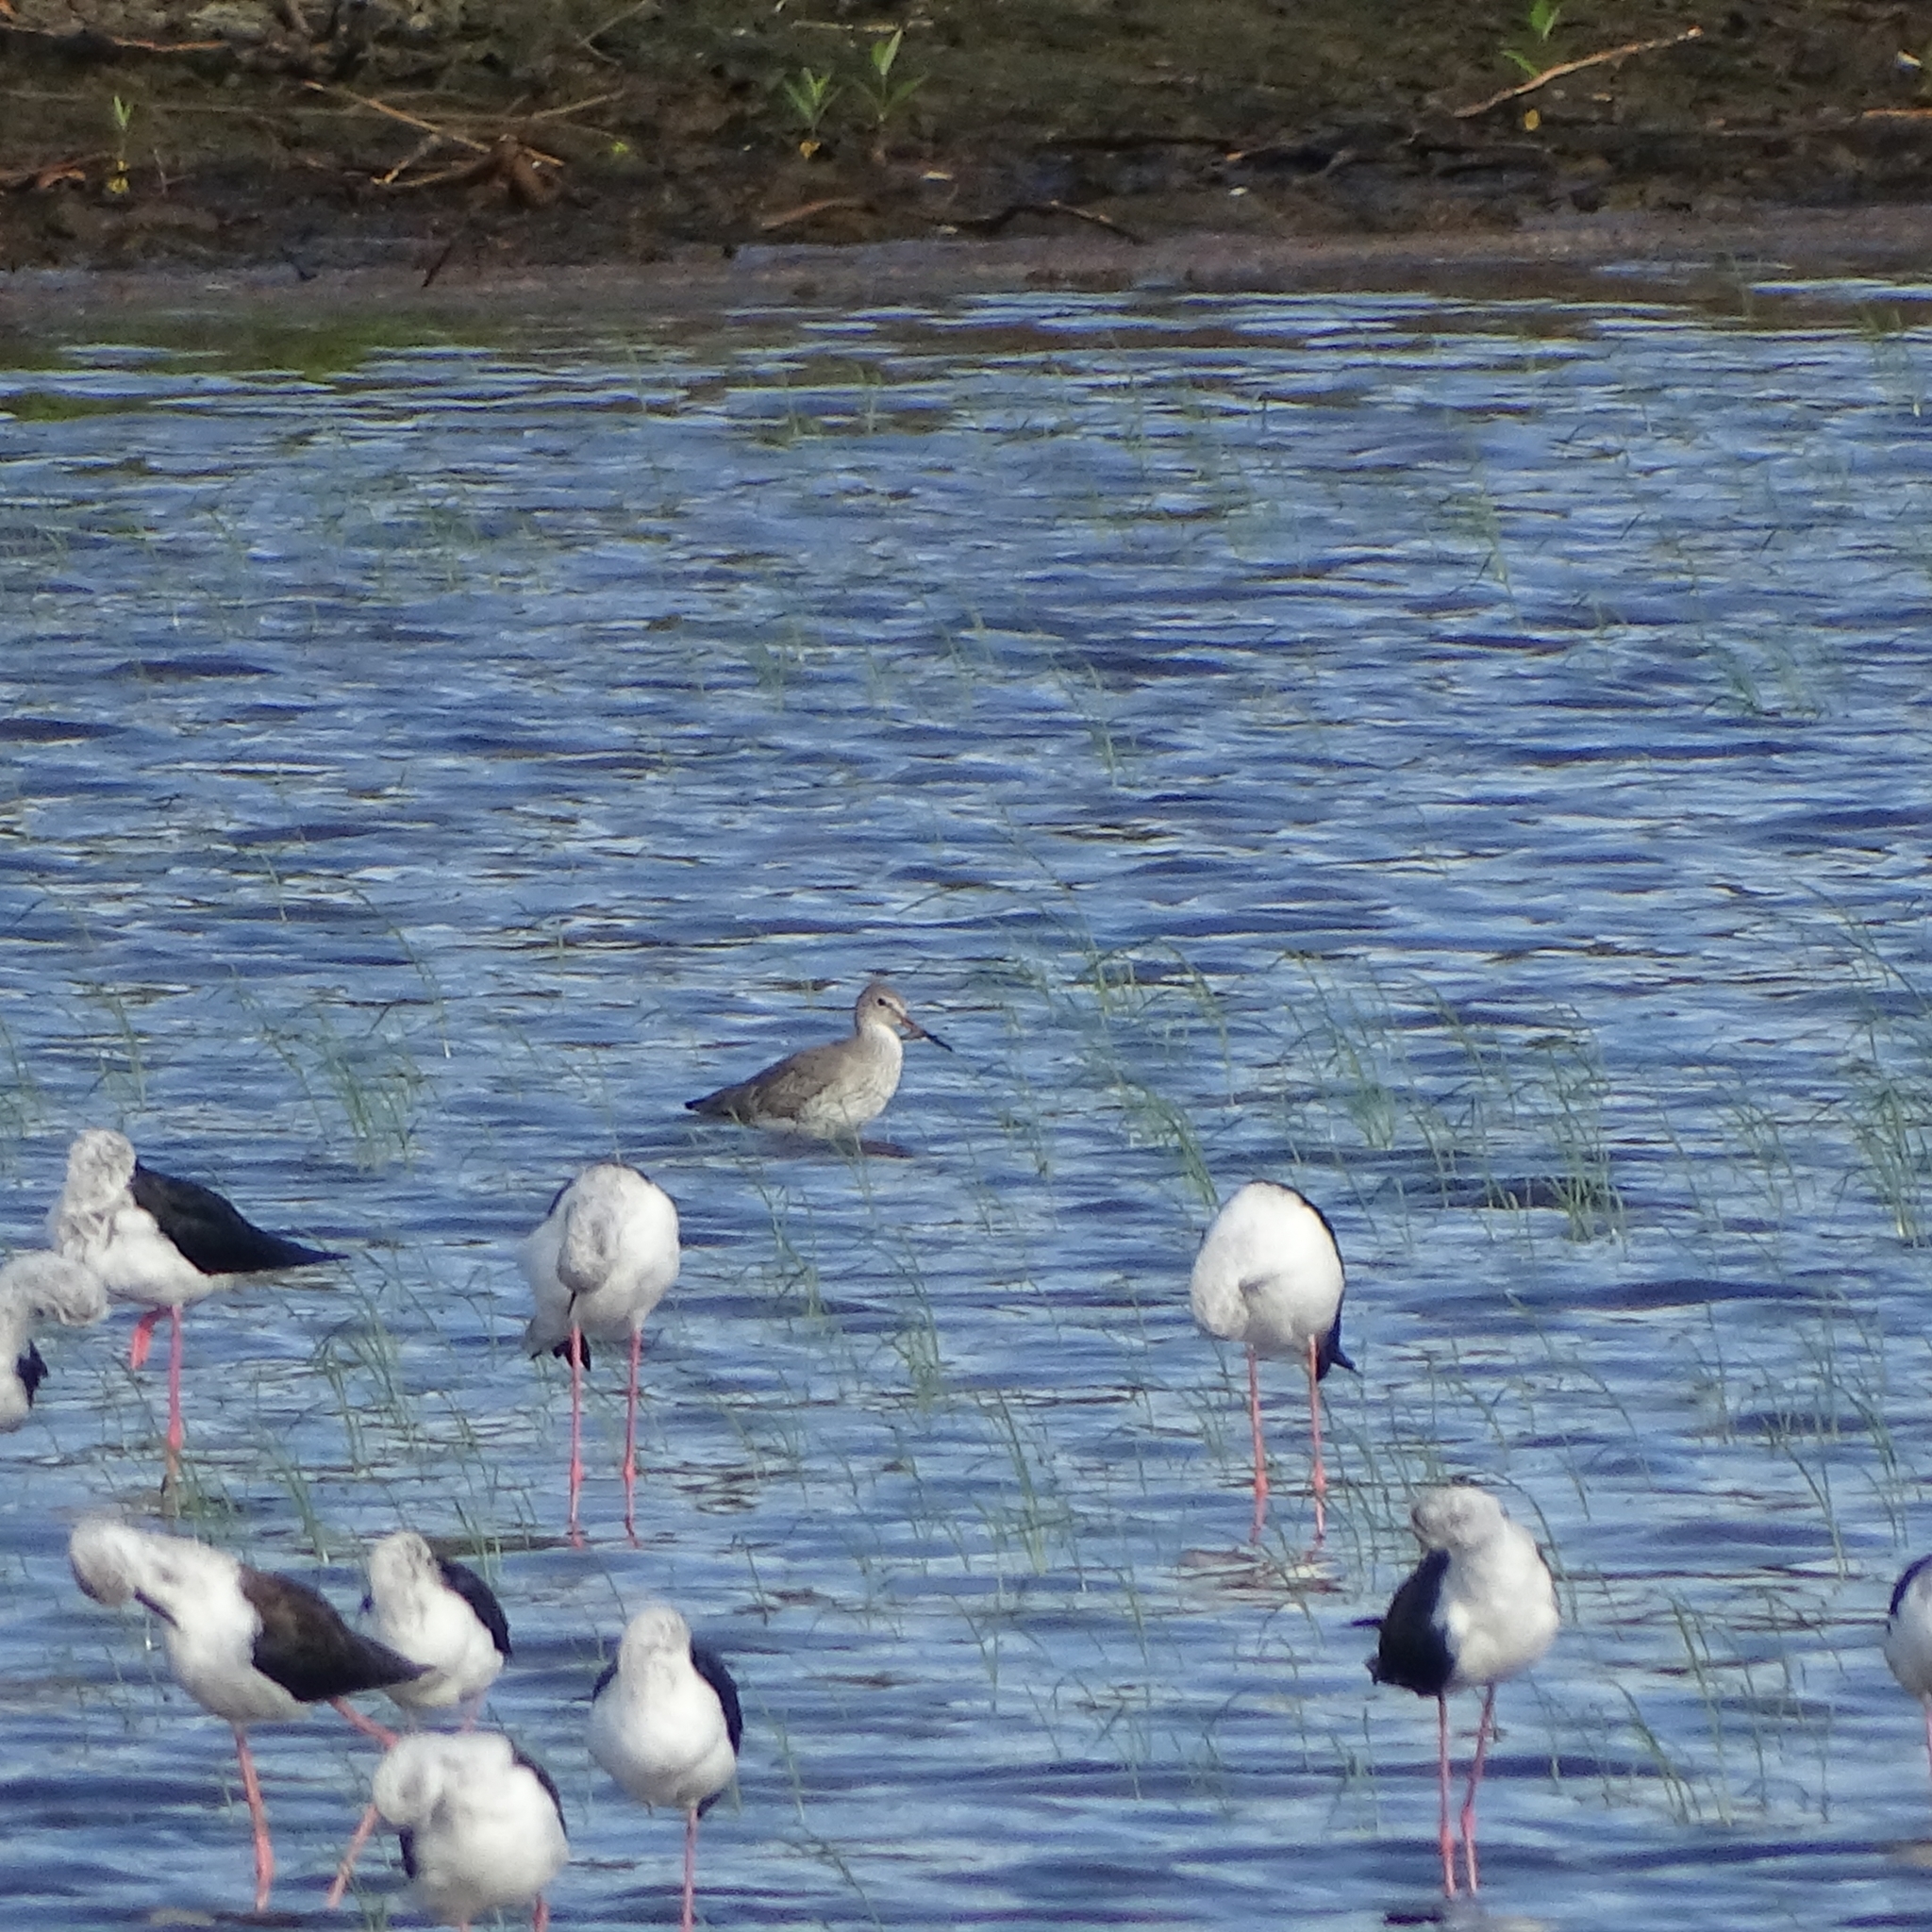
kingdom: Animalia
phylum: Chordata
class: Aves
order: Charadriiformes
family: Recurvirostridae
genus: Himantopus
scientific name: Himantopus himantopus
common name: Black-winged stilt
